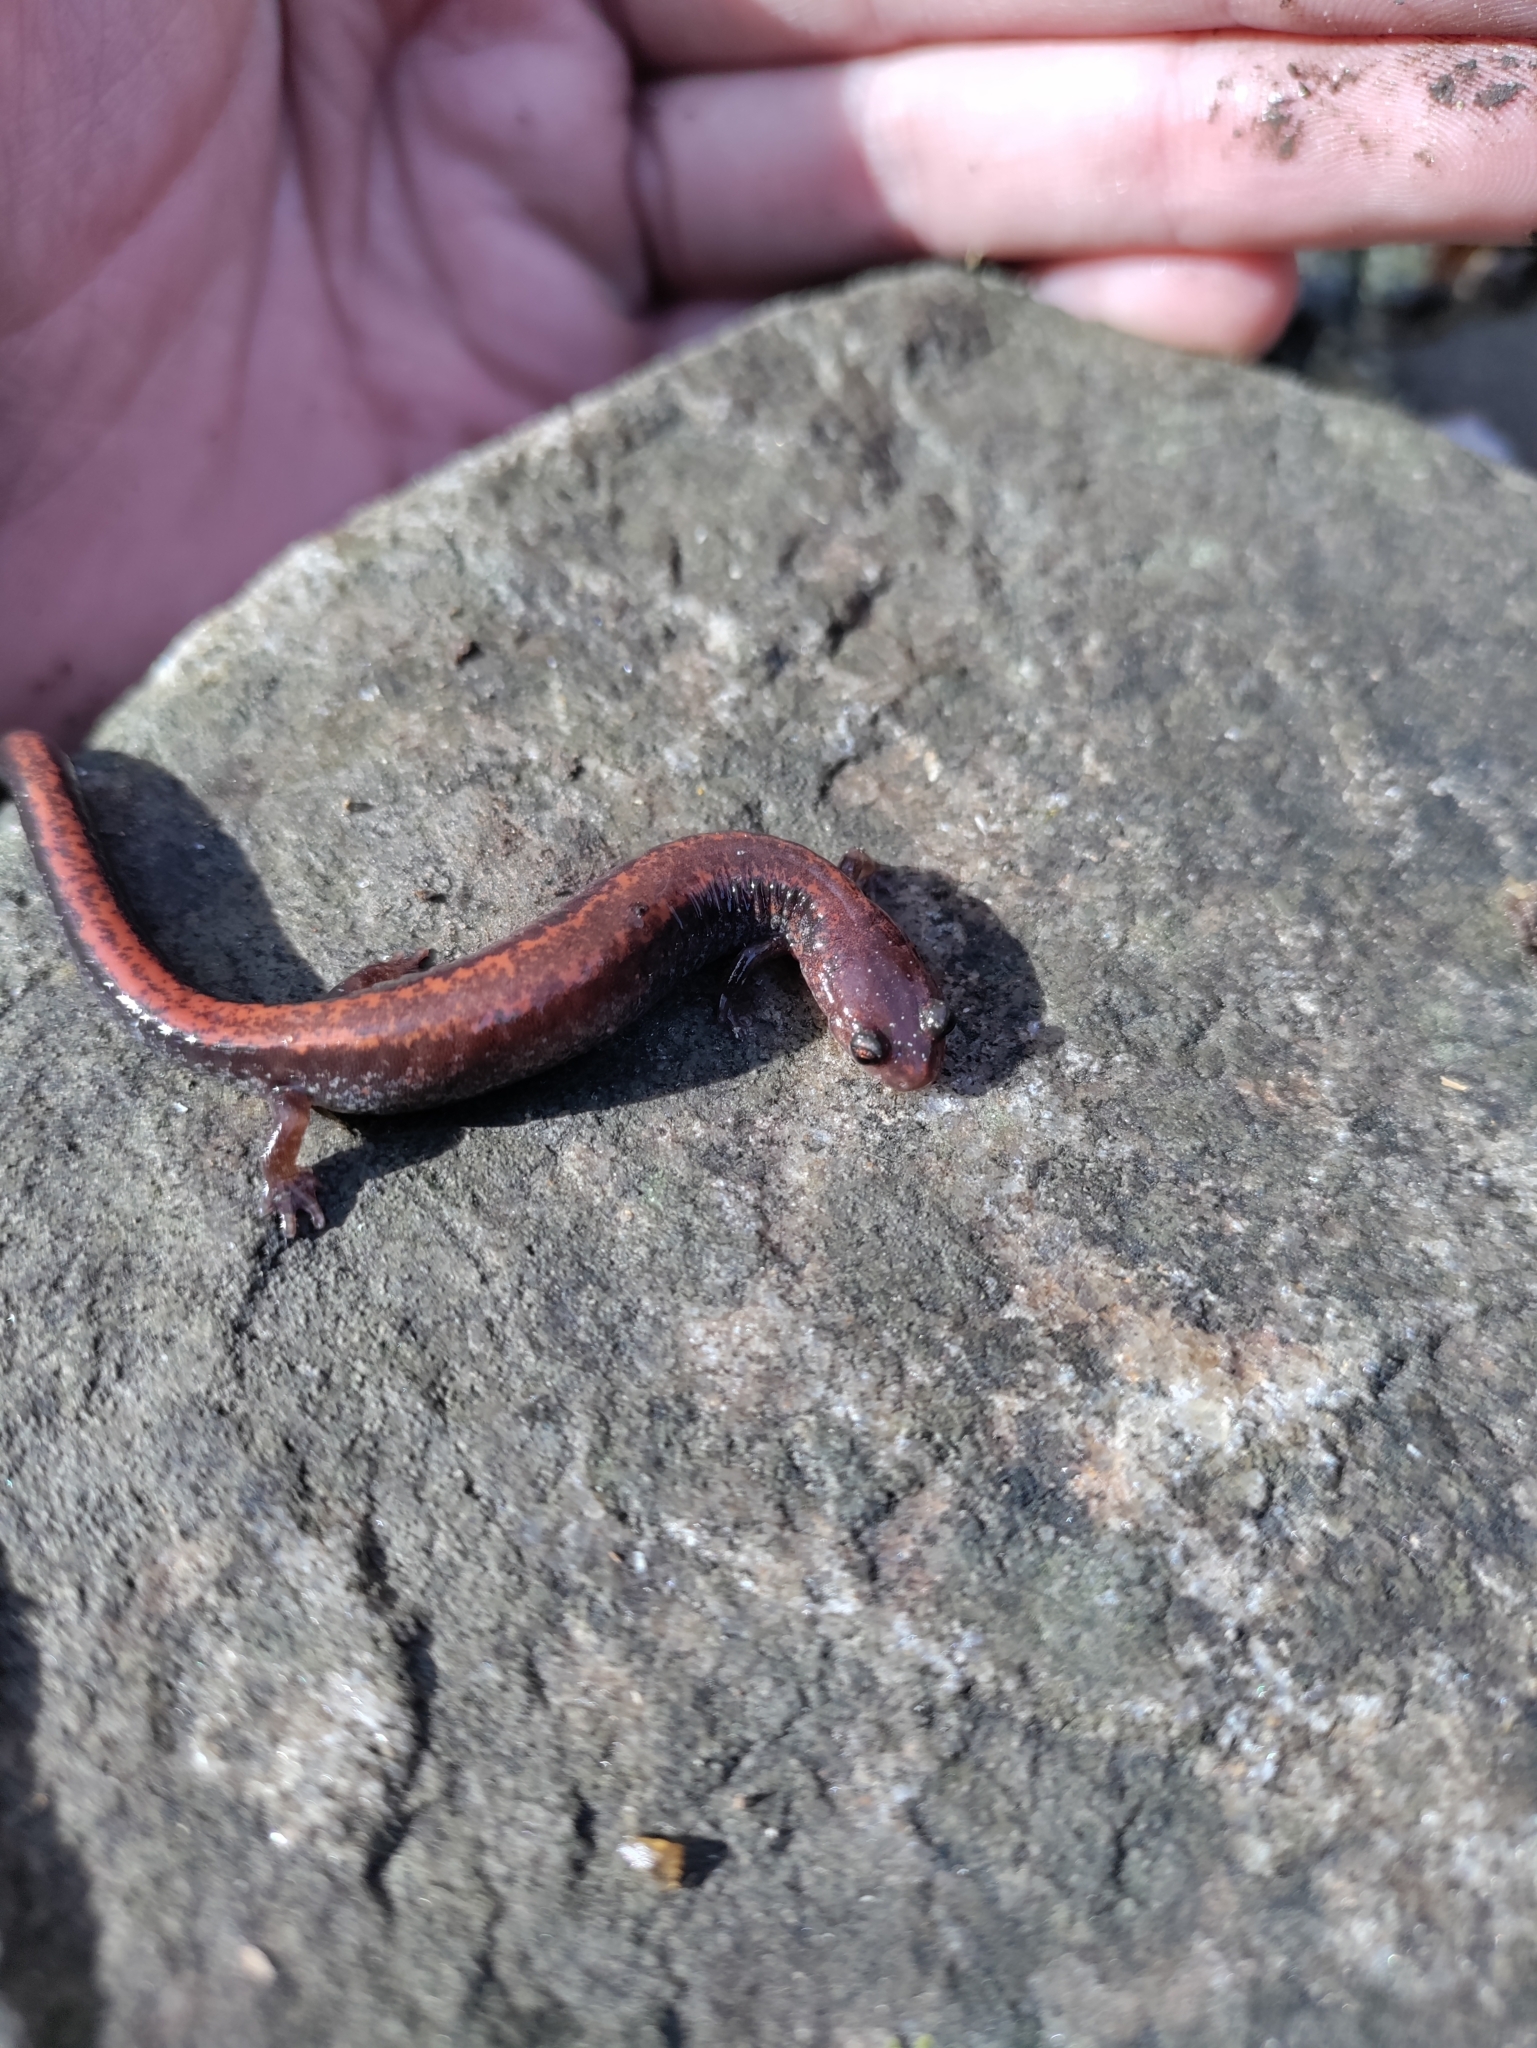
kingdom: Animalia
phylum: Chordata
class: Amphibia
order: Caudata
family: Plethodontidae
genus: Plethodon
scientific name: Plethodon cinereus
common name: Redback salamander
